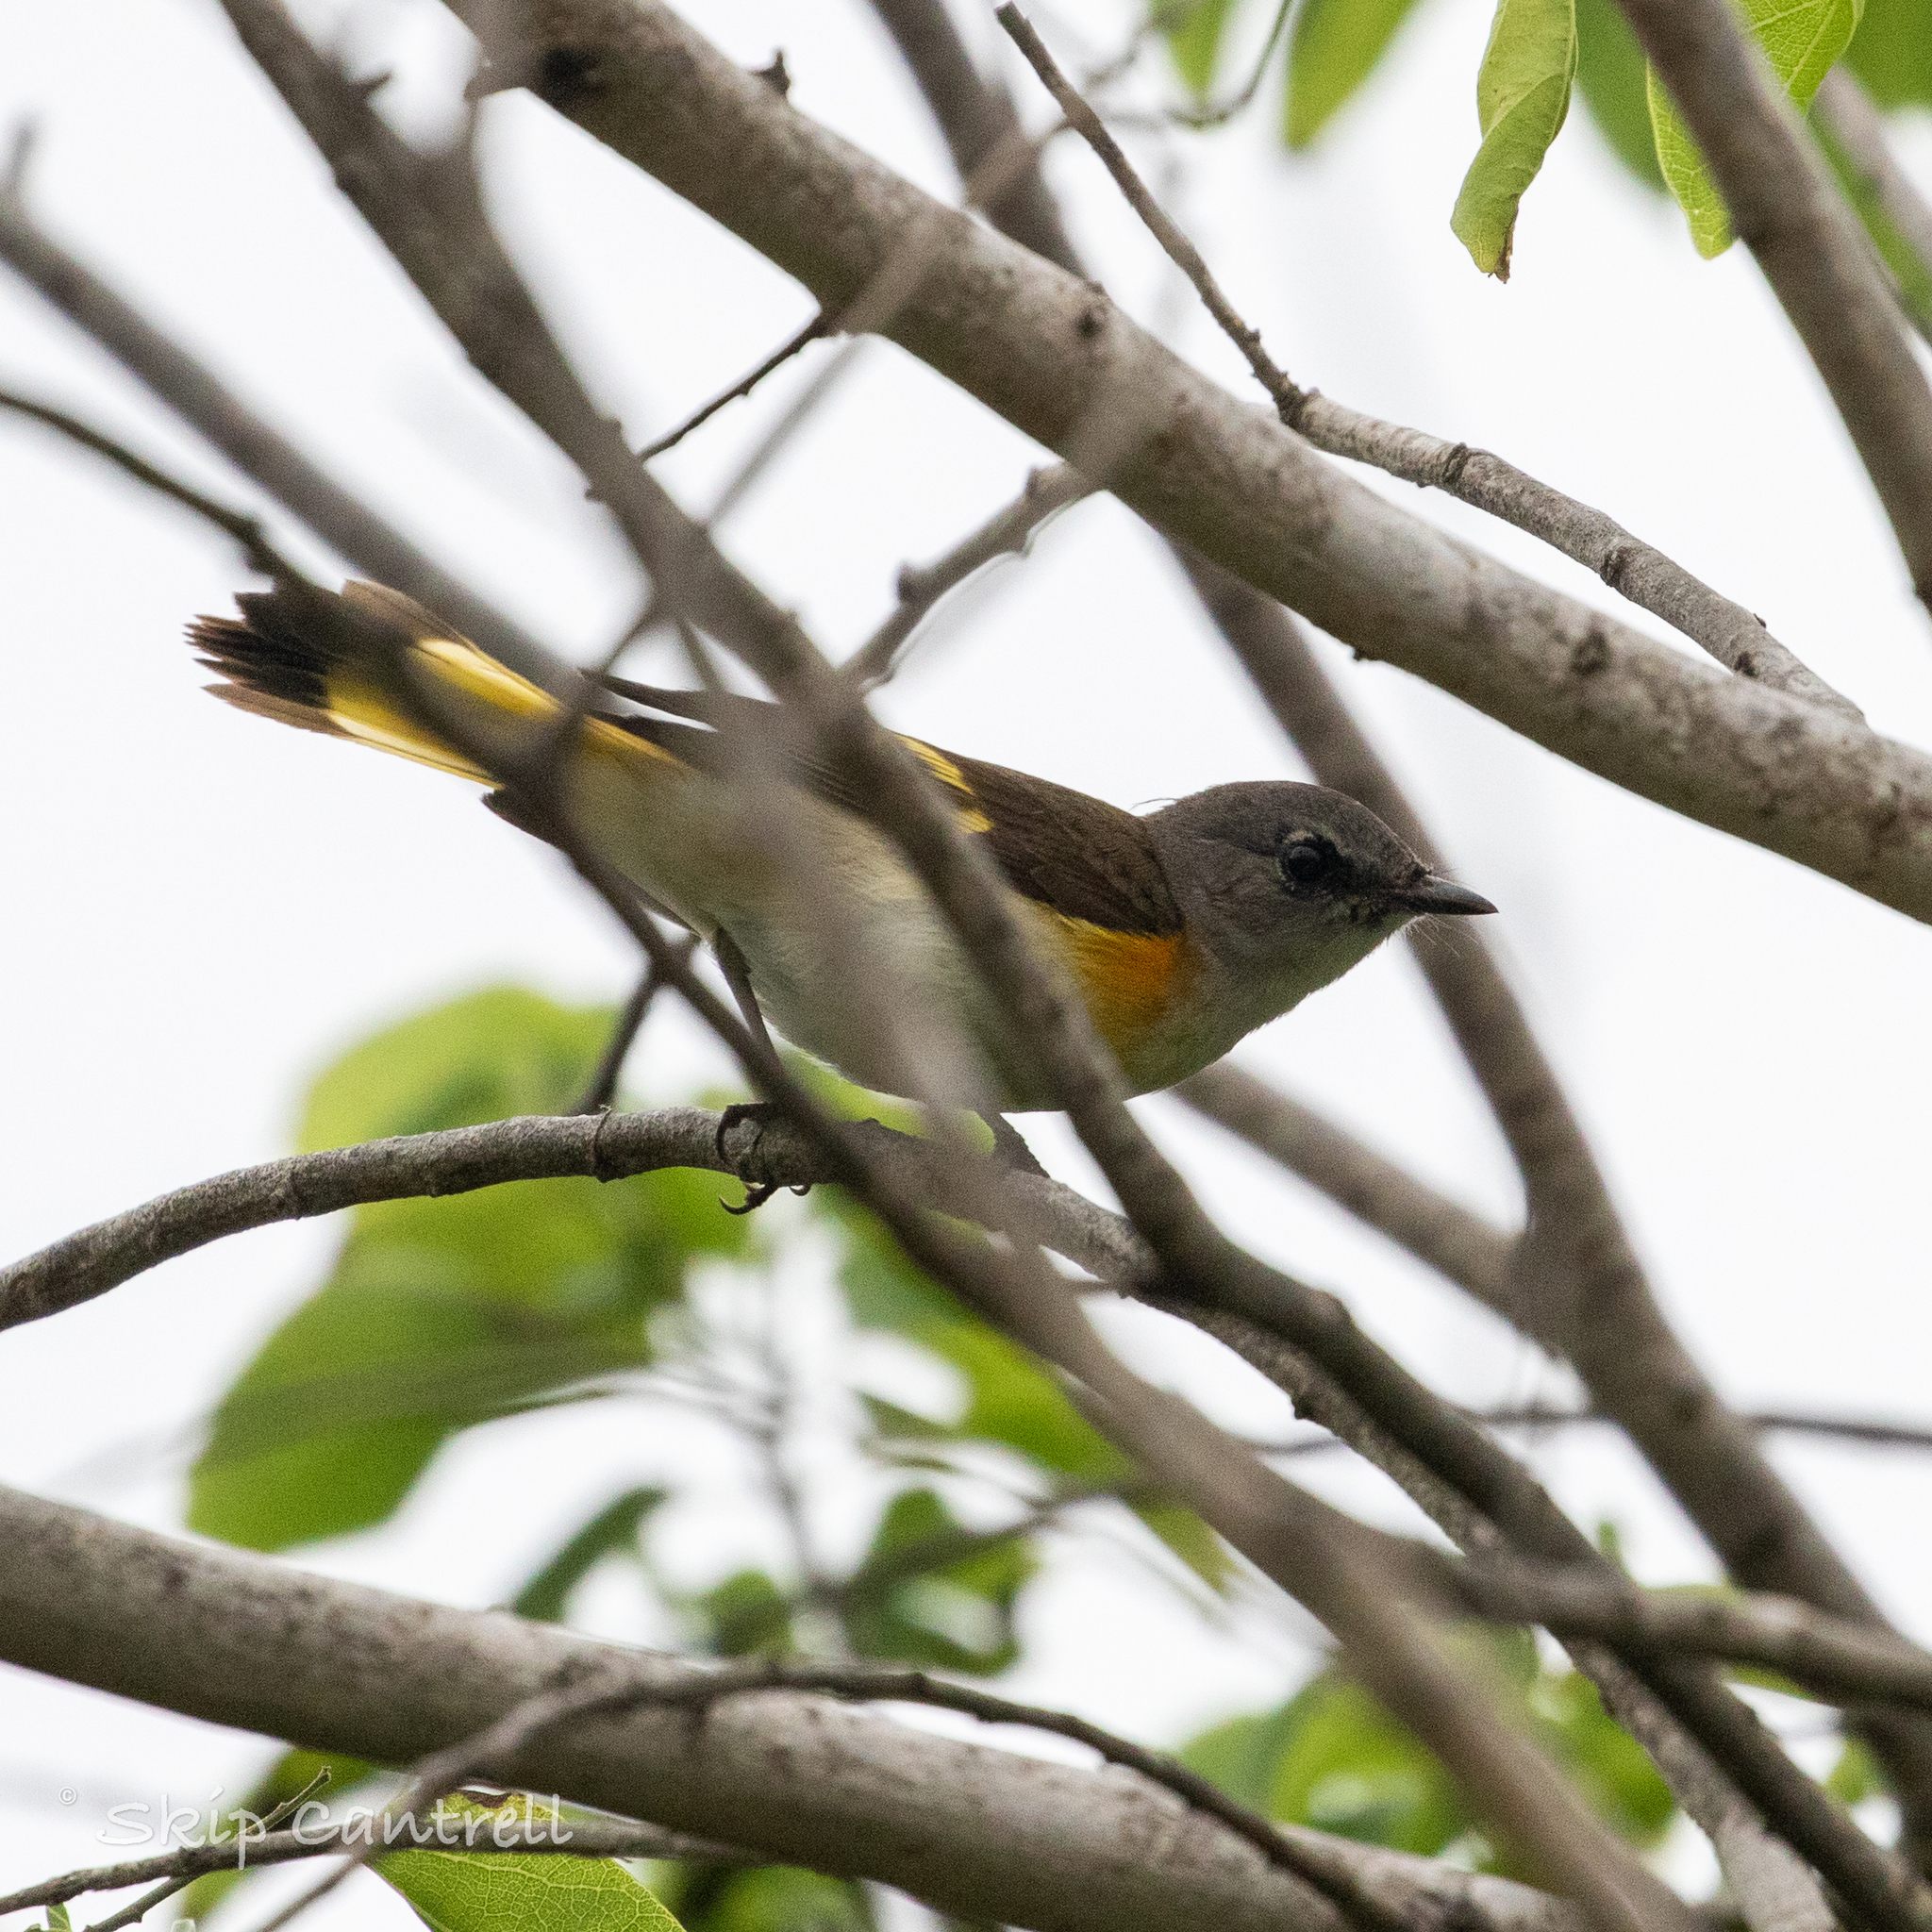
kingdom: Animalia
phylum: Chordata
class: Aves
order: Passeriformes
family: Parulidae
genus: Setophaga
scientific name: Setophaga ruticilla
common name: American redstart
